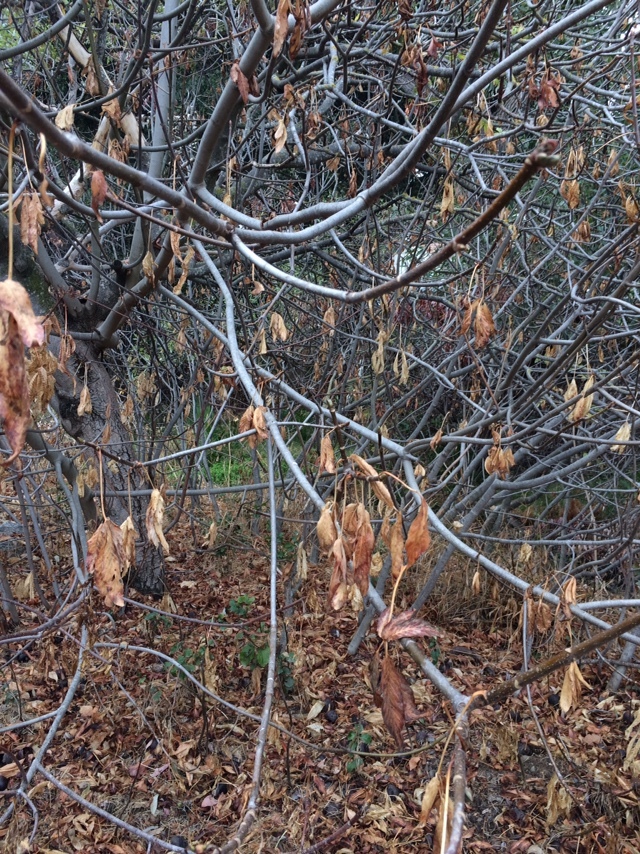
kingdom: Plantae
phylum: Tracheophyta
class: Magnoliopsida
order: Sapindales
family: Sapindaceae
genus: Aesculus
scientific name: Aesculus californica
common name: California buckeye
